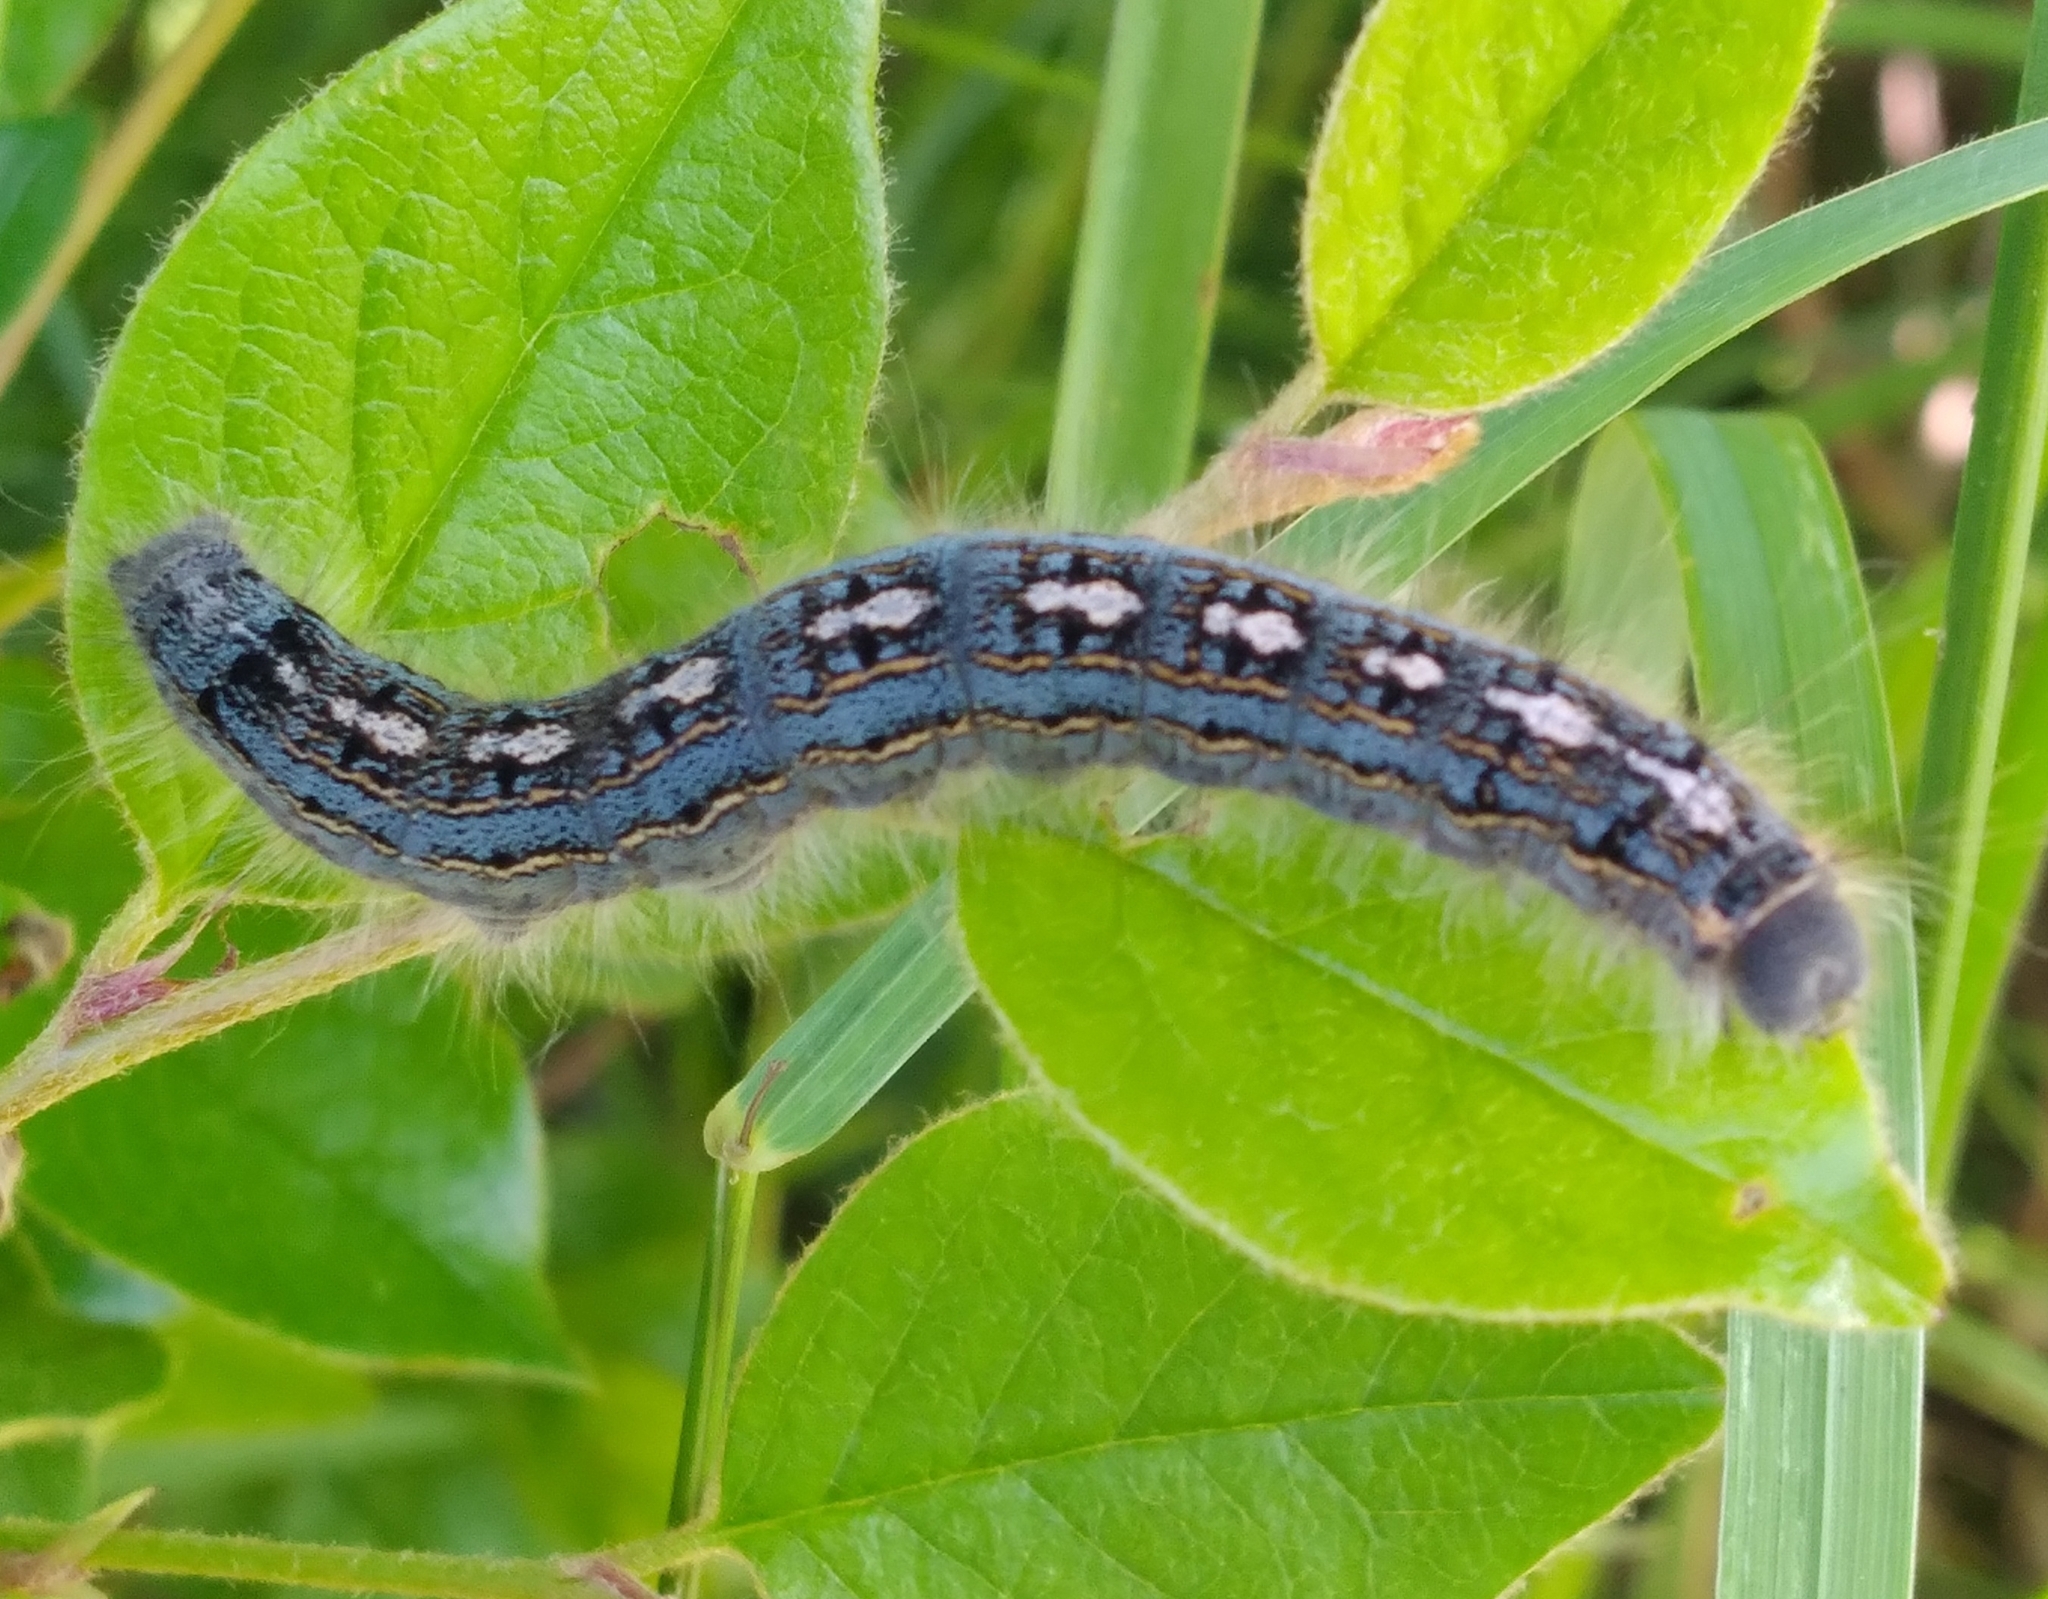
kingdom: Animalia
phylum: Arthropoda
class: Insecta
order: Lepidoptera
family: Lasiocampidae
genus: Malacosoma
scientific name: Malacosoma disstria
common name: Forest tent caterpillar
